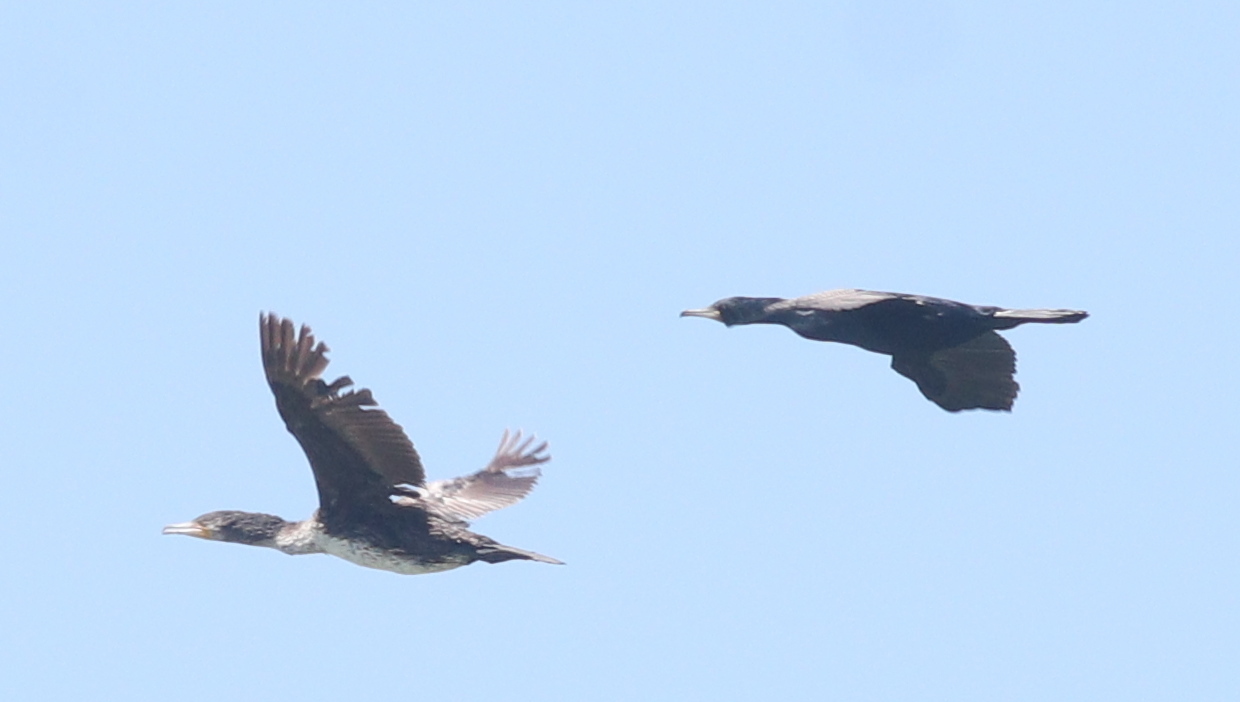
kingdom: Animalia
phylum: Chordata
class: Aves
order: Suliformes
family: Phalacrocoracidae
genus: Phalacrocorax
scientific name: Phalacrocorax carbo
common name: Great cormorant
